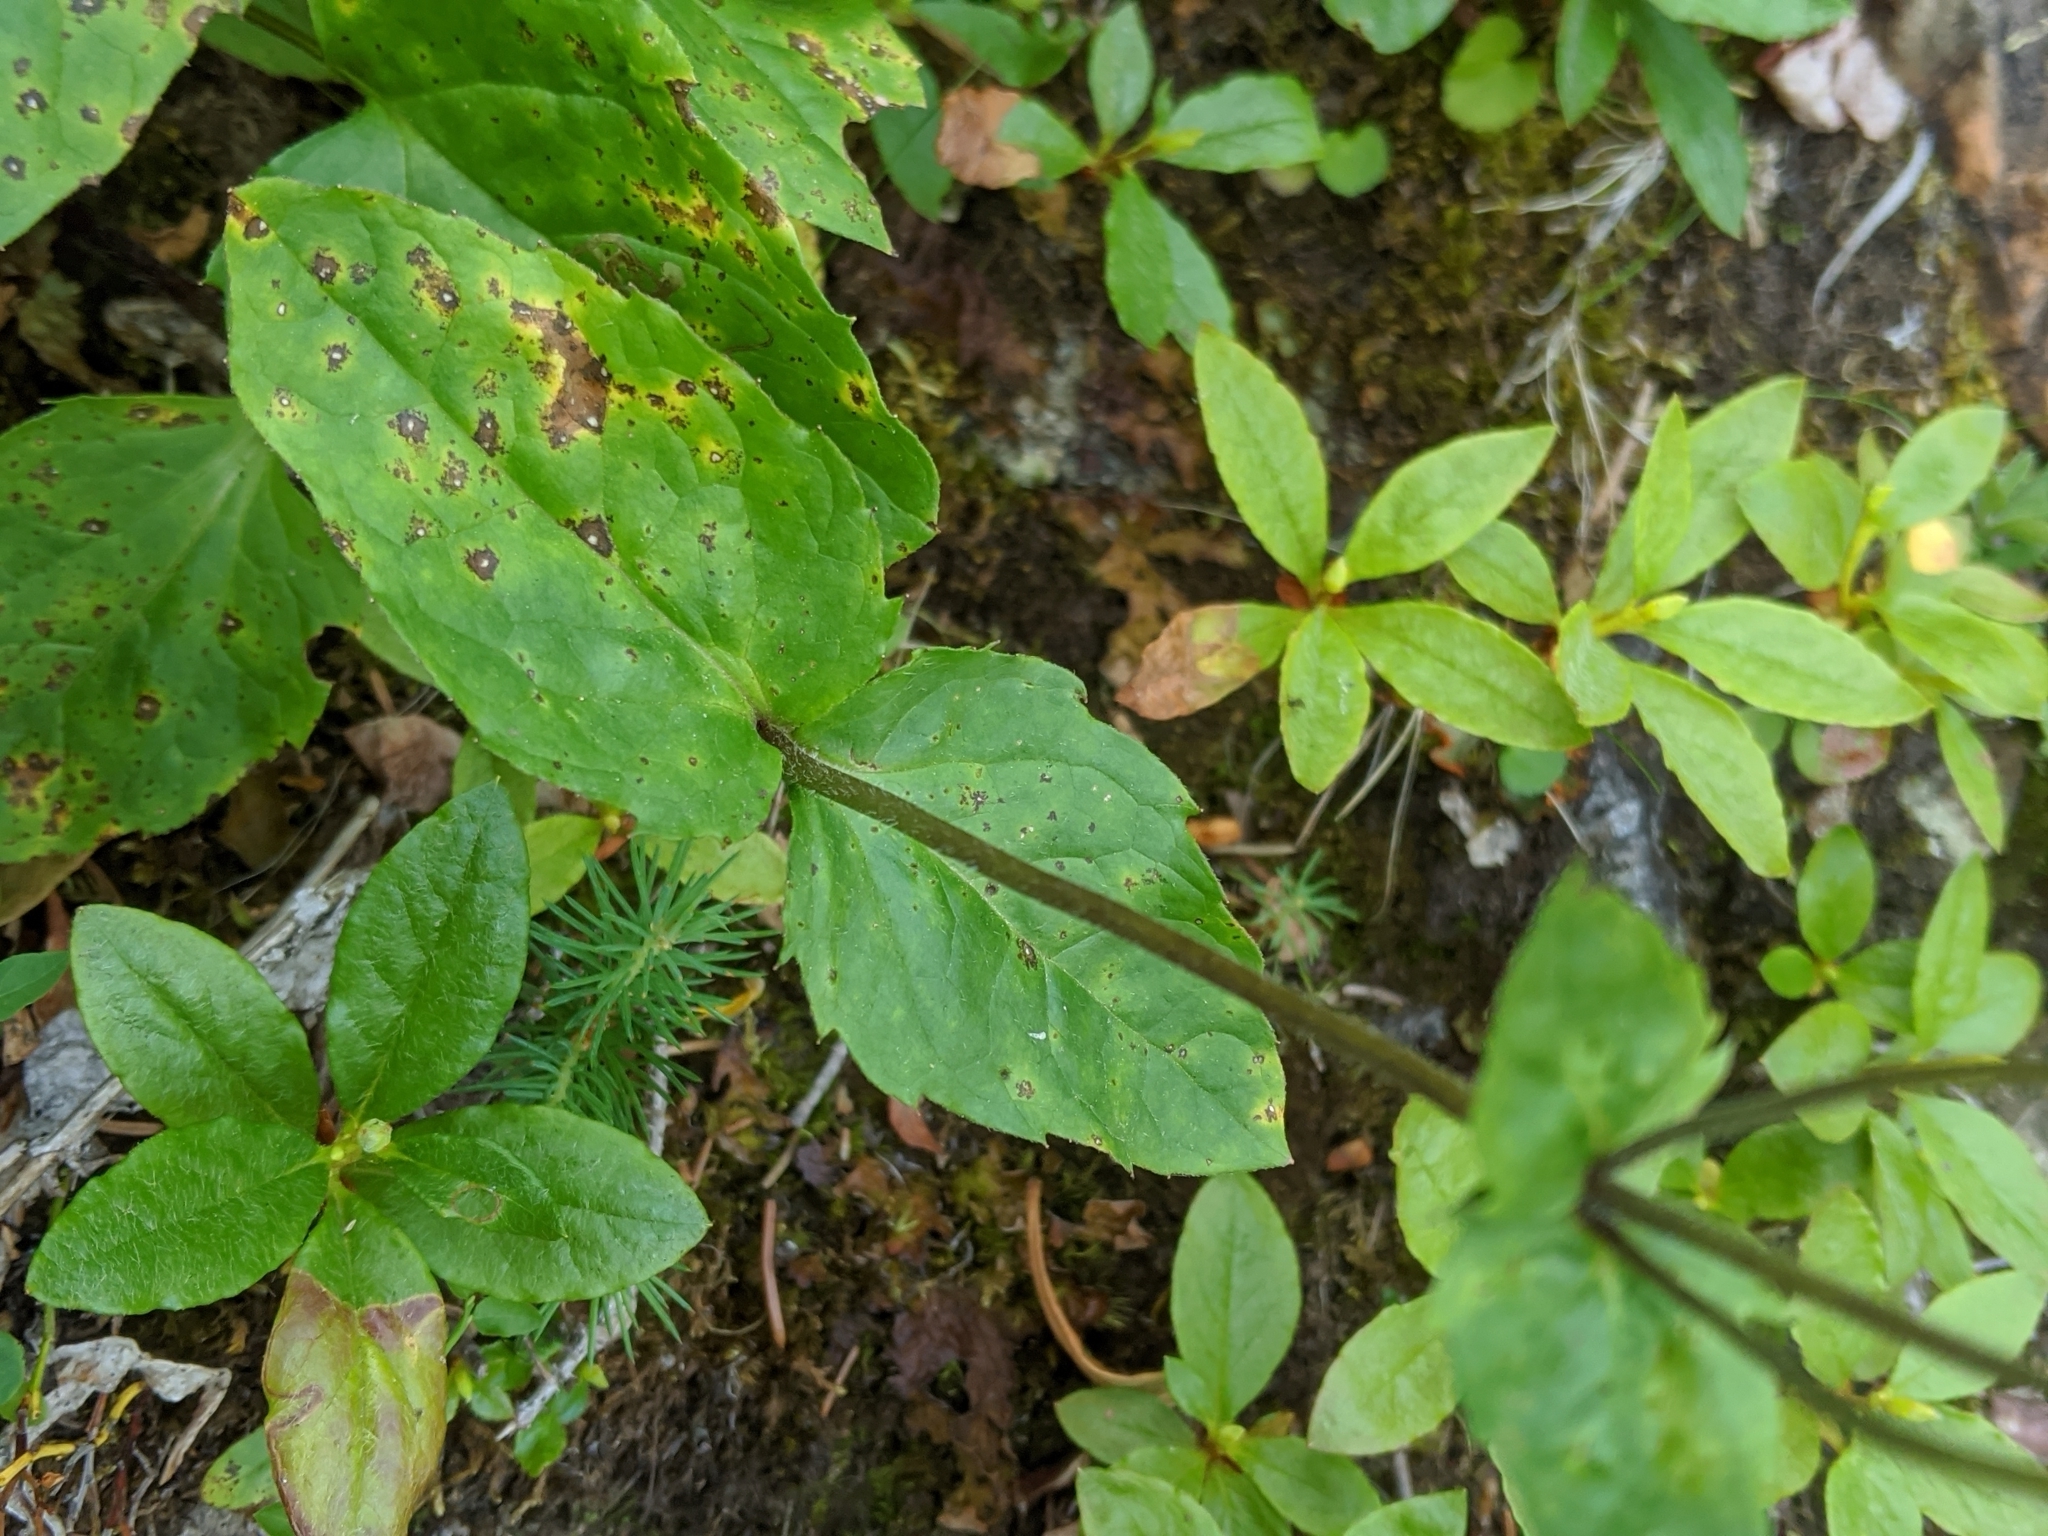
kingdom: Plantae
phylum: Tracheophyta
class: Magnoliopsida
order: Asterales
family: Asteraceae
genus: Arnica
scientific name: Arnica latifolia
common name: Arnica
